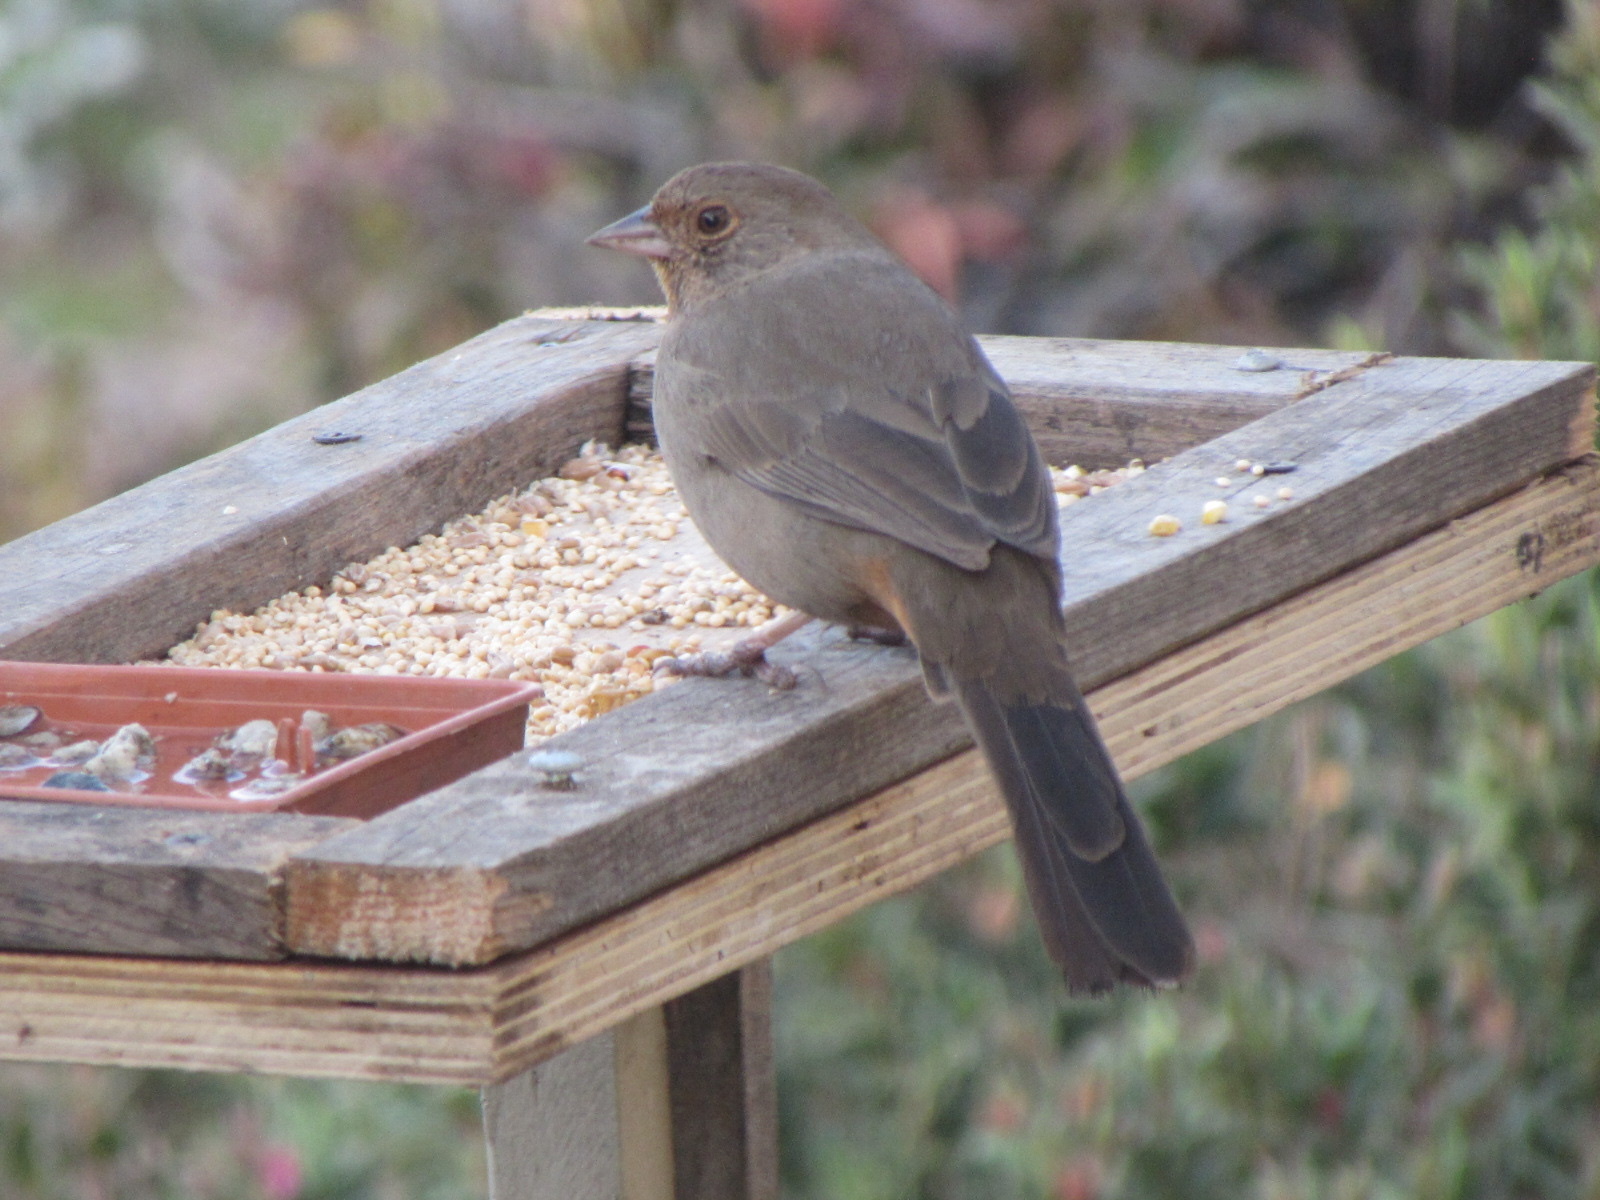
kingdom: Animalia
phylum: Chordata
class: Aves
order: Passeriformes
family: Passerellidae
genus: Melozone
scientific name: Melozone crissalis
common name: California towhee
